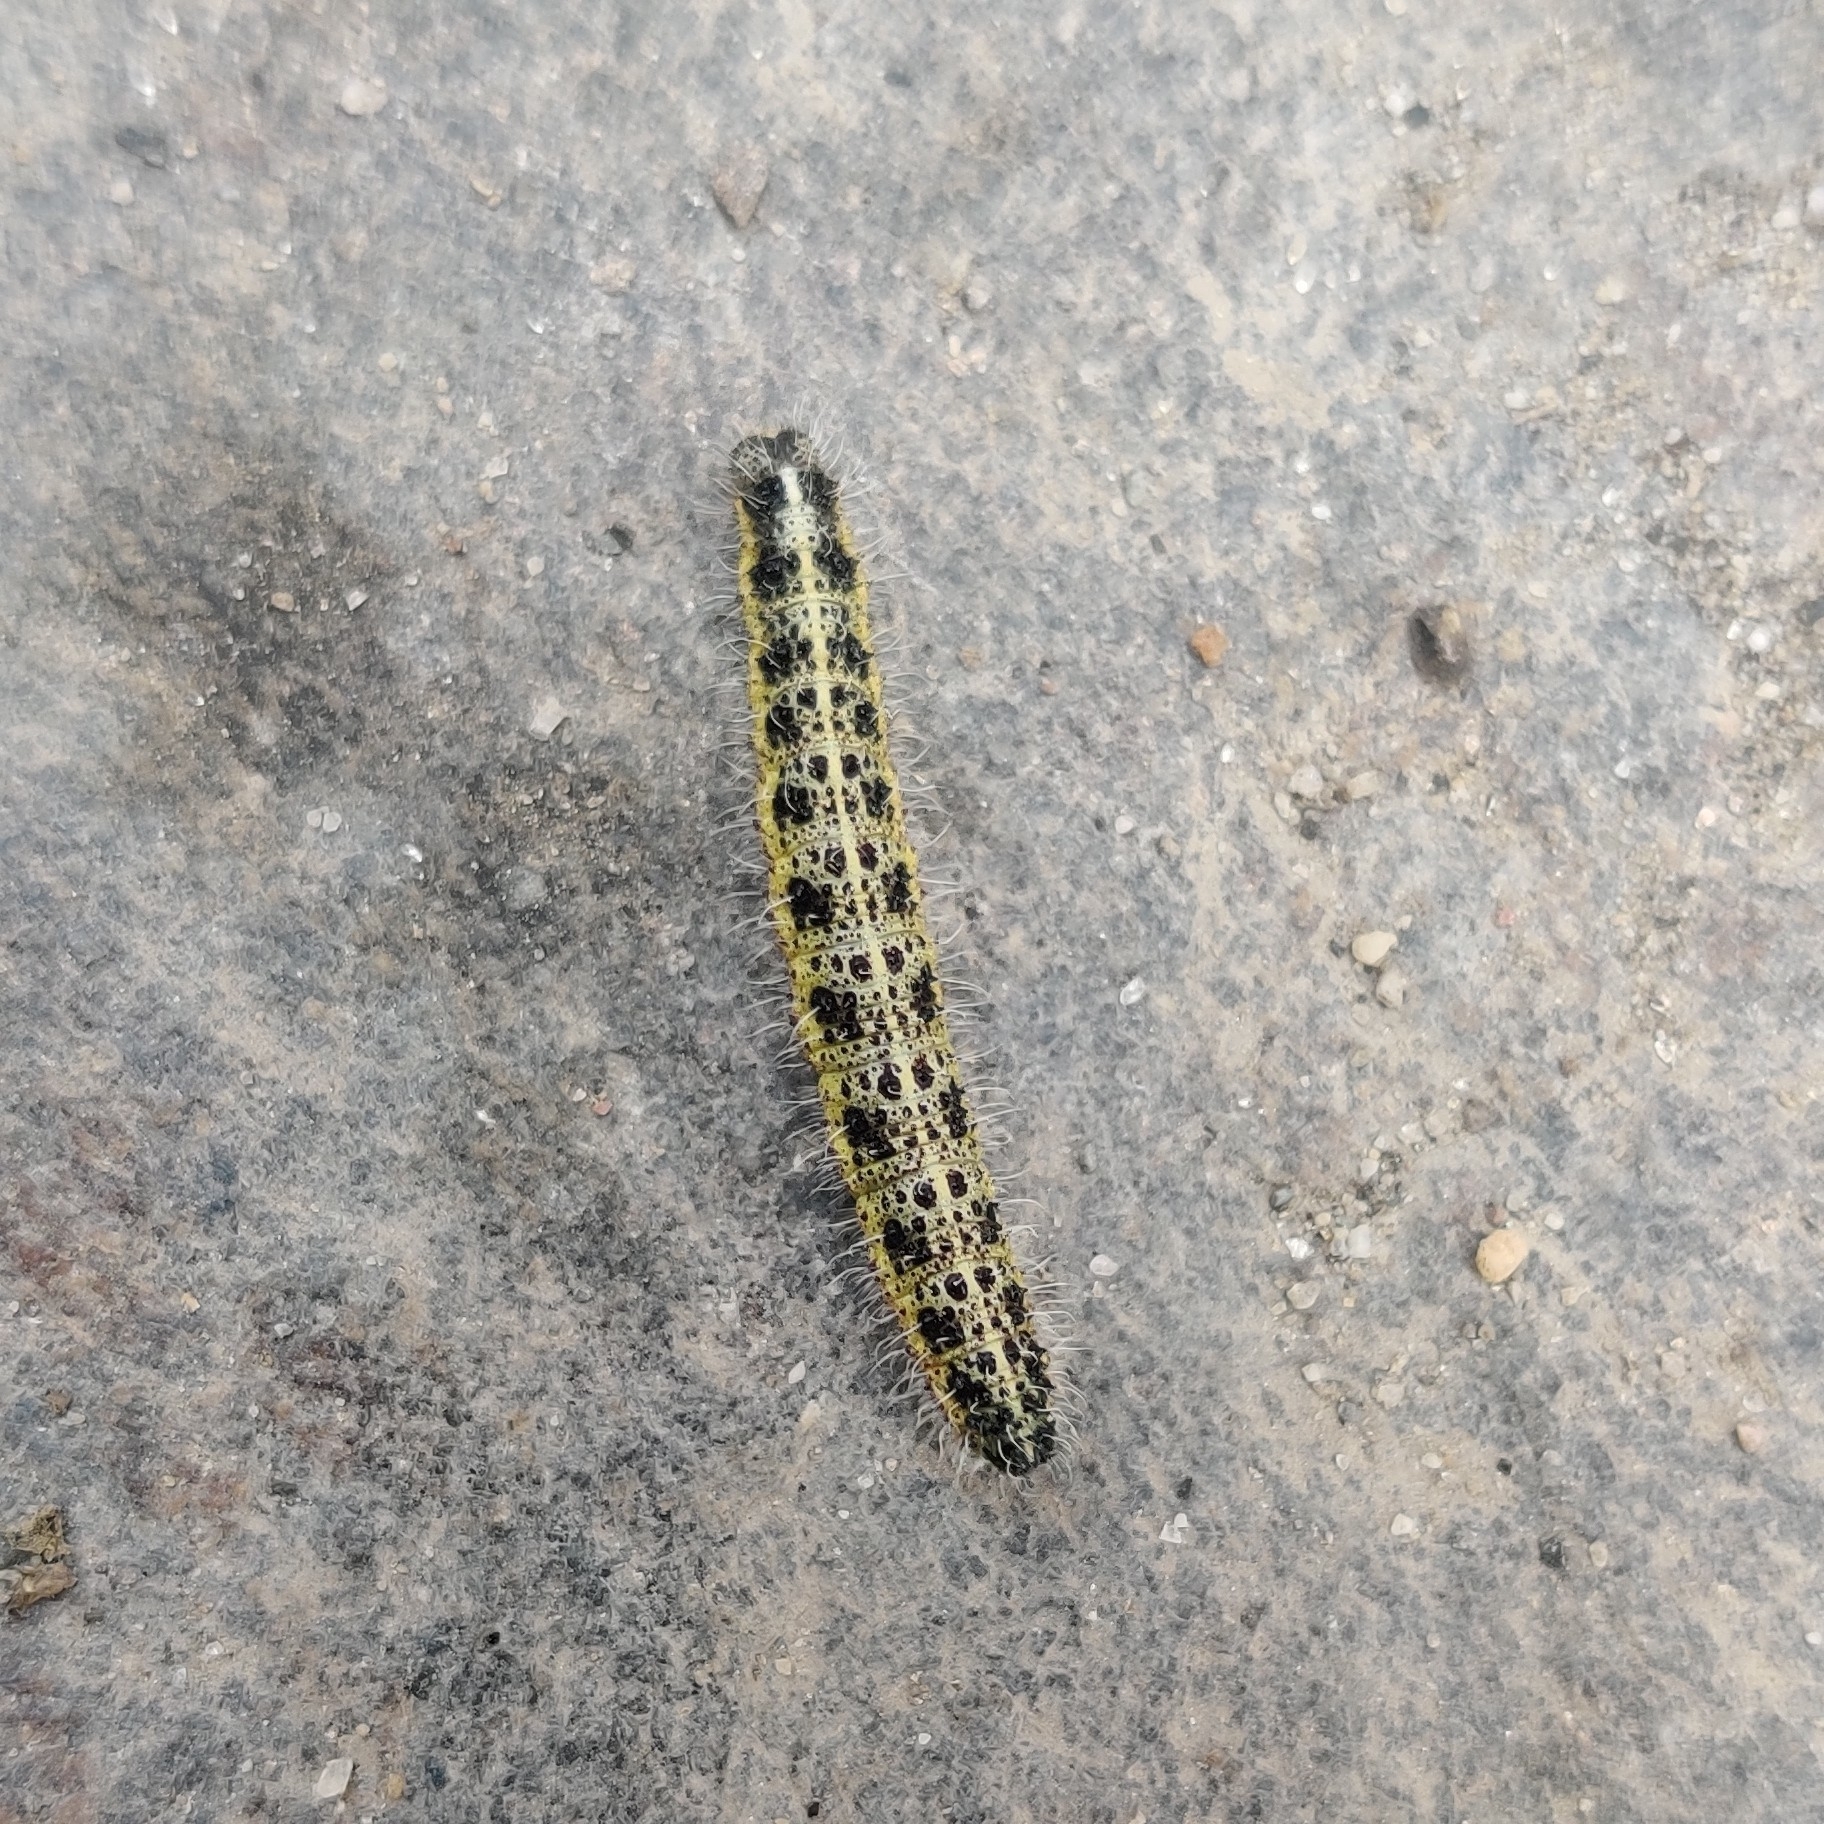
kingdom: Animalia
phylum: Arthropoda
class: Insecta
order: Lepidoptera
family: Pieridae
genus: Pieris
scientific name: Pieris brassicae
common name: Large white
